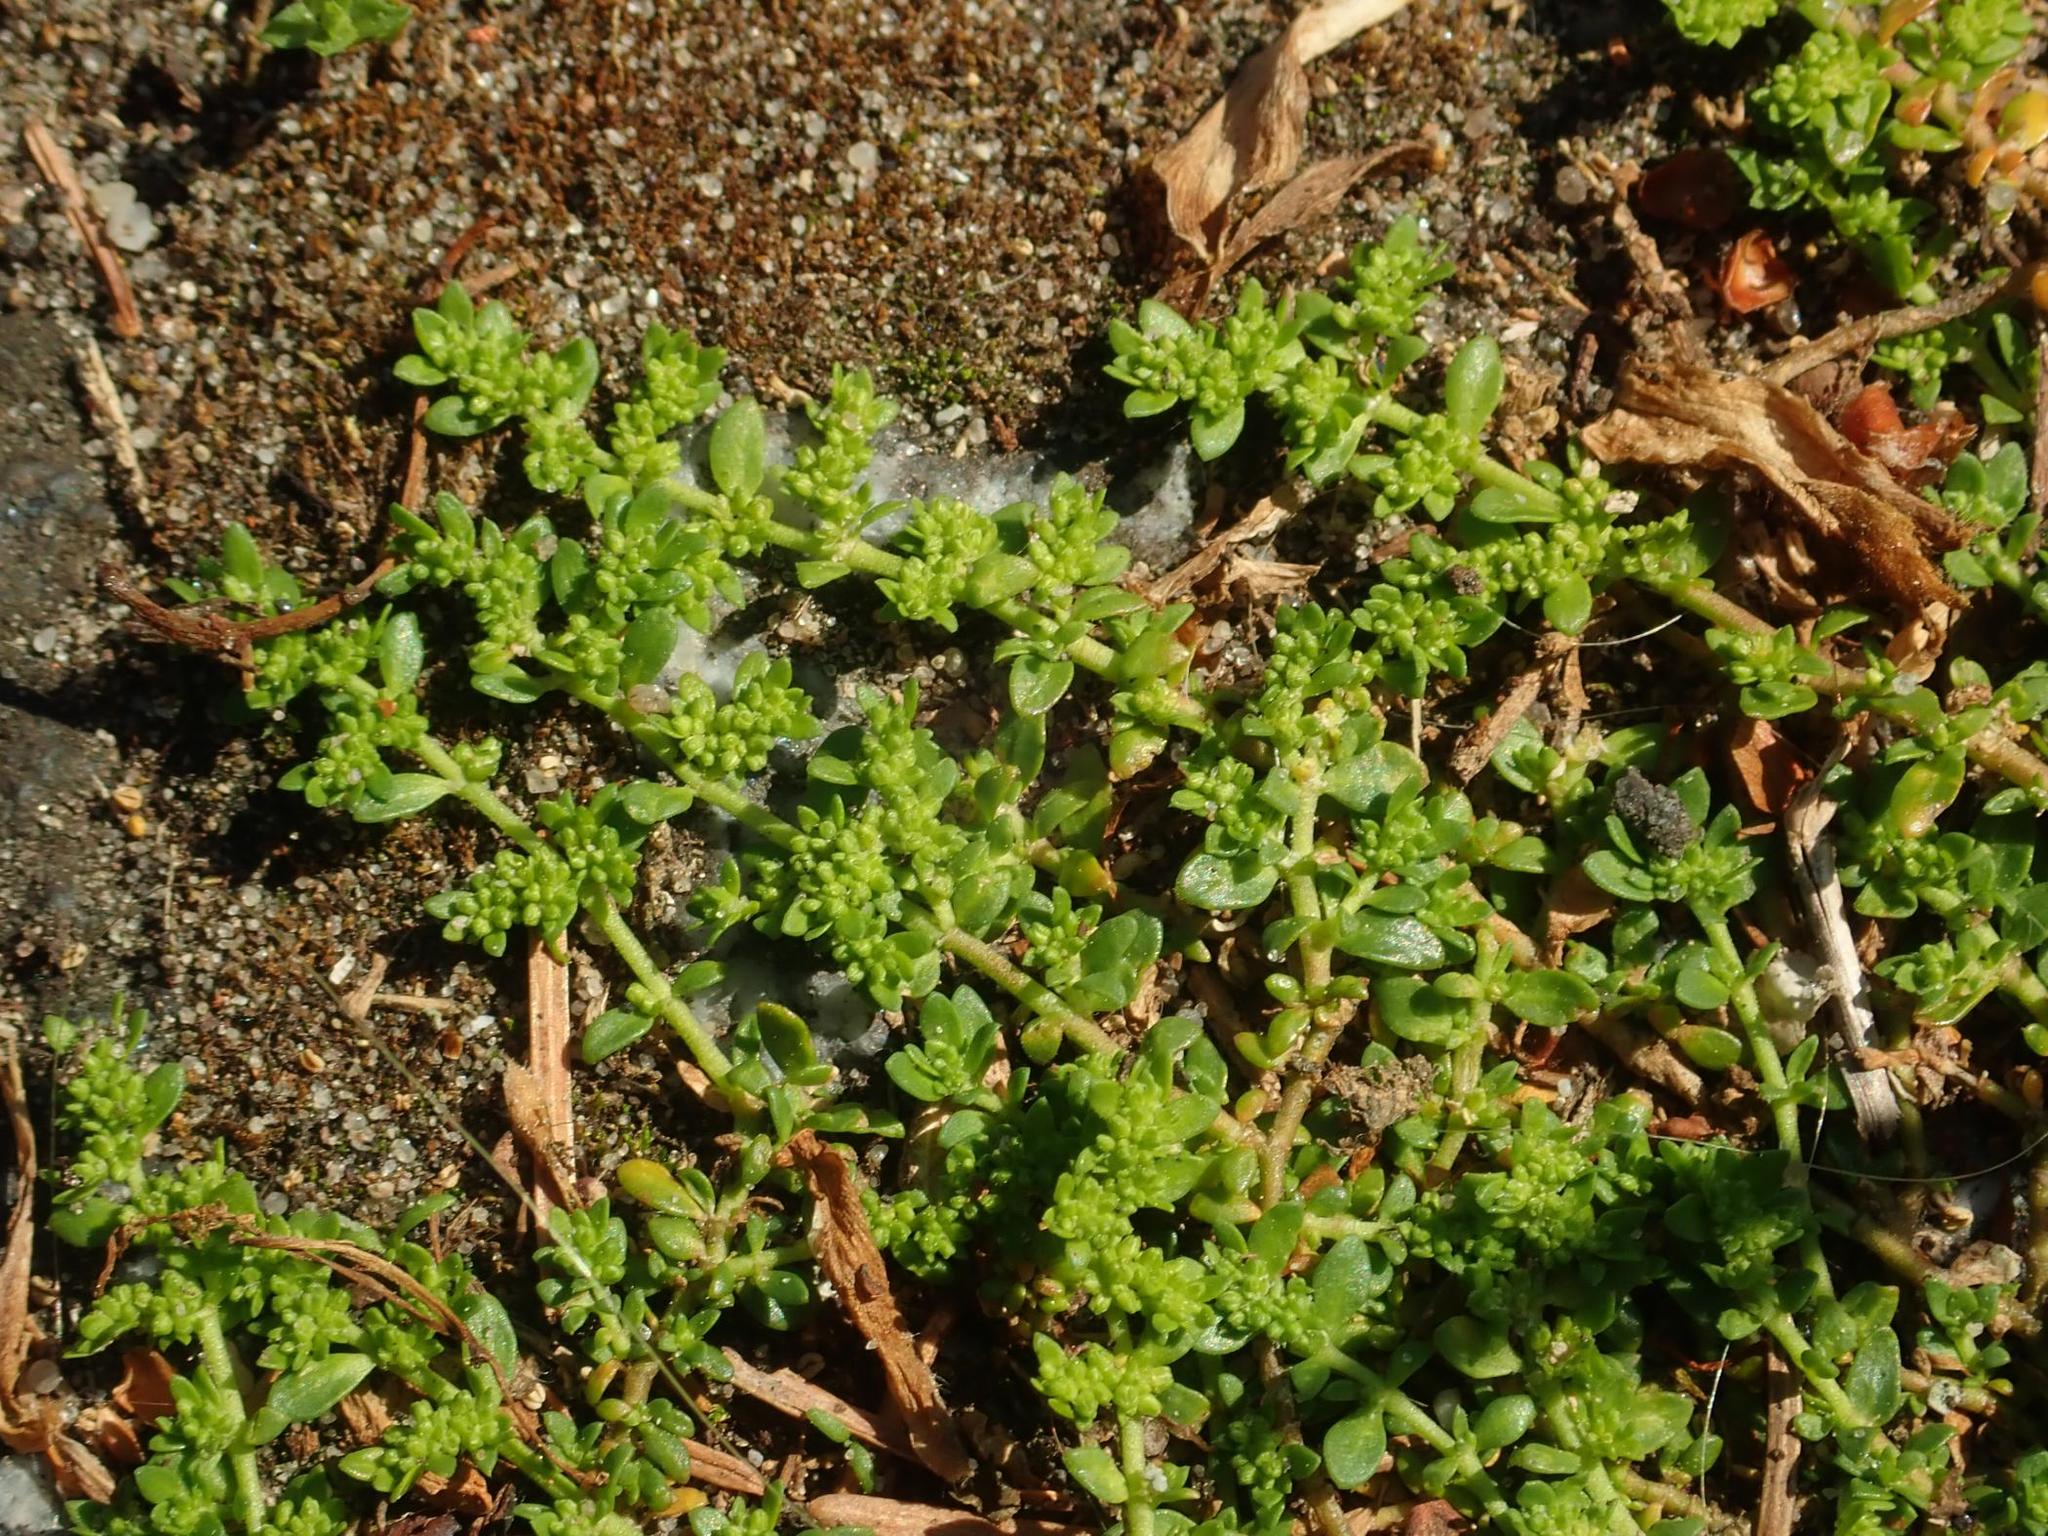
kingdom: Plantae
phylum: Tracheophyta
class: Magnoliopsida
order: Caryophyllales
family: Caryophyllaceae
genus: Herniaria
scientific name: Herniaria glabra
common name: Smooth rupturewort
